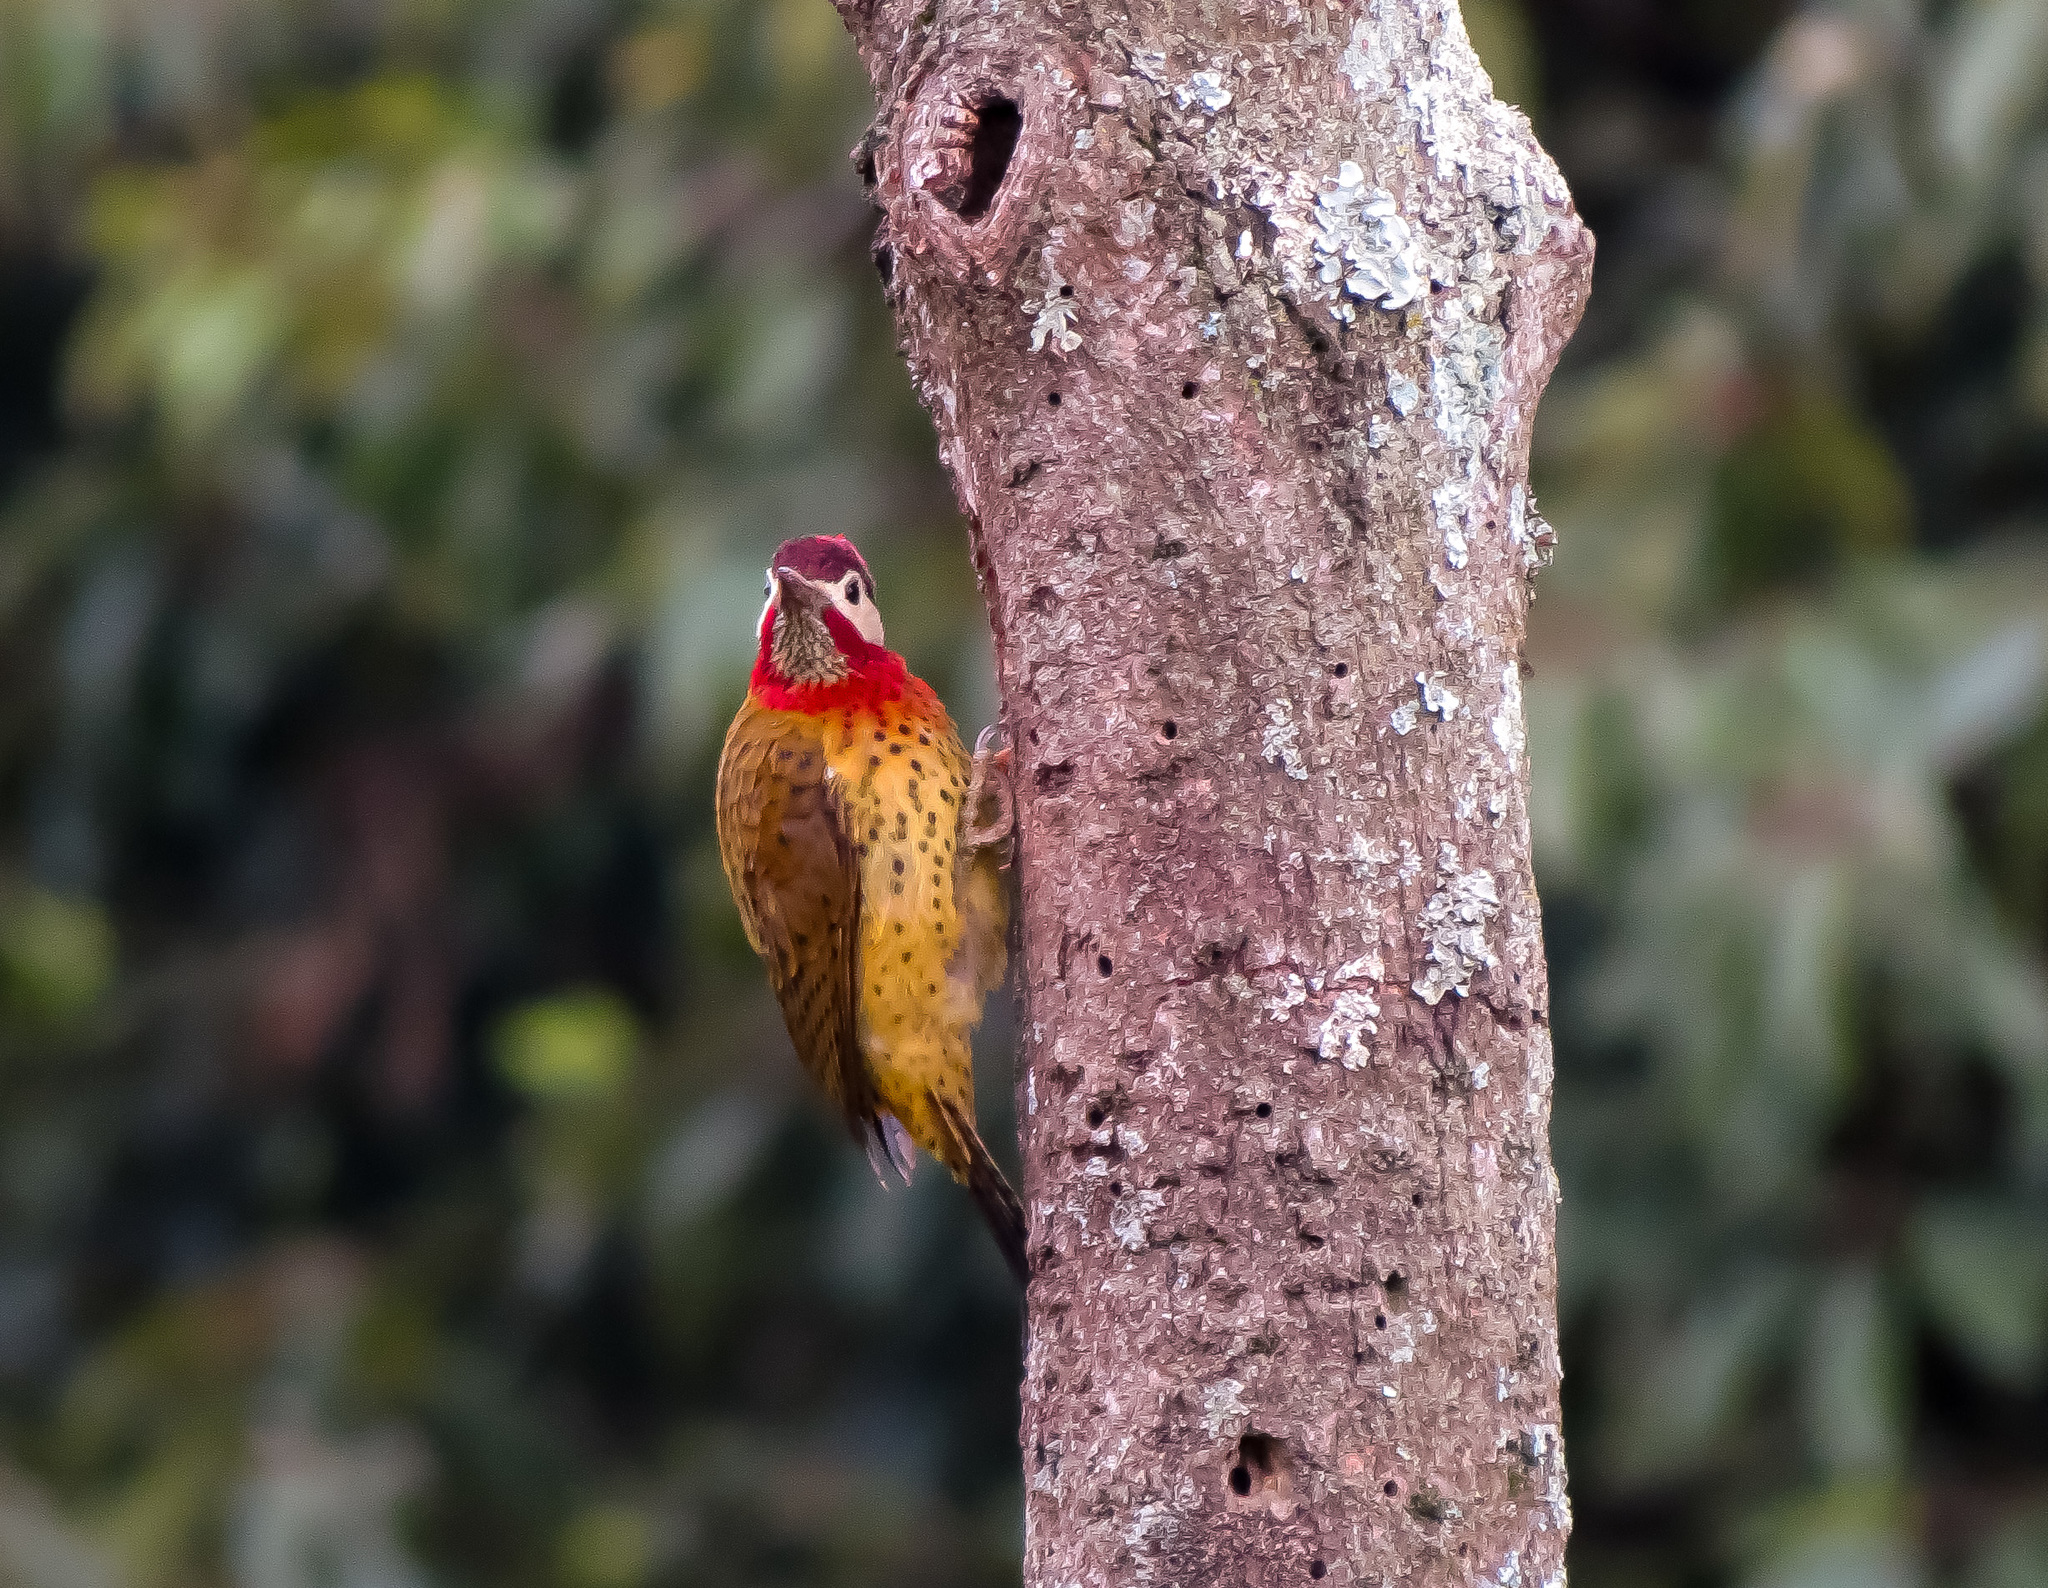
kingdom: Animalia
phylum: Chordata
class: Aves
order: Piciformes
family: Picidae
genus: Colaptes
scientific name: Colaptes punctigula
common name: Spot-breasted woodpecker
